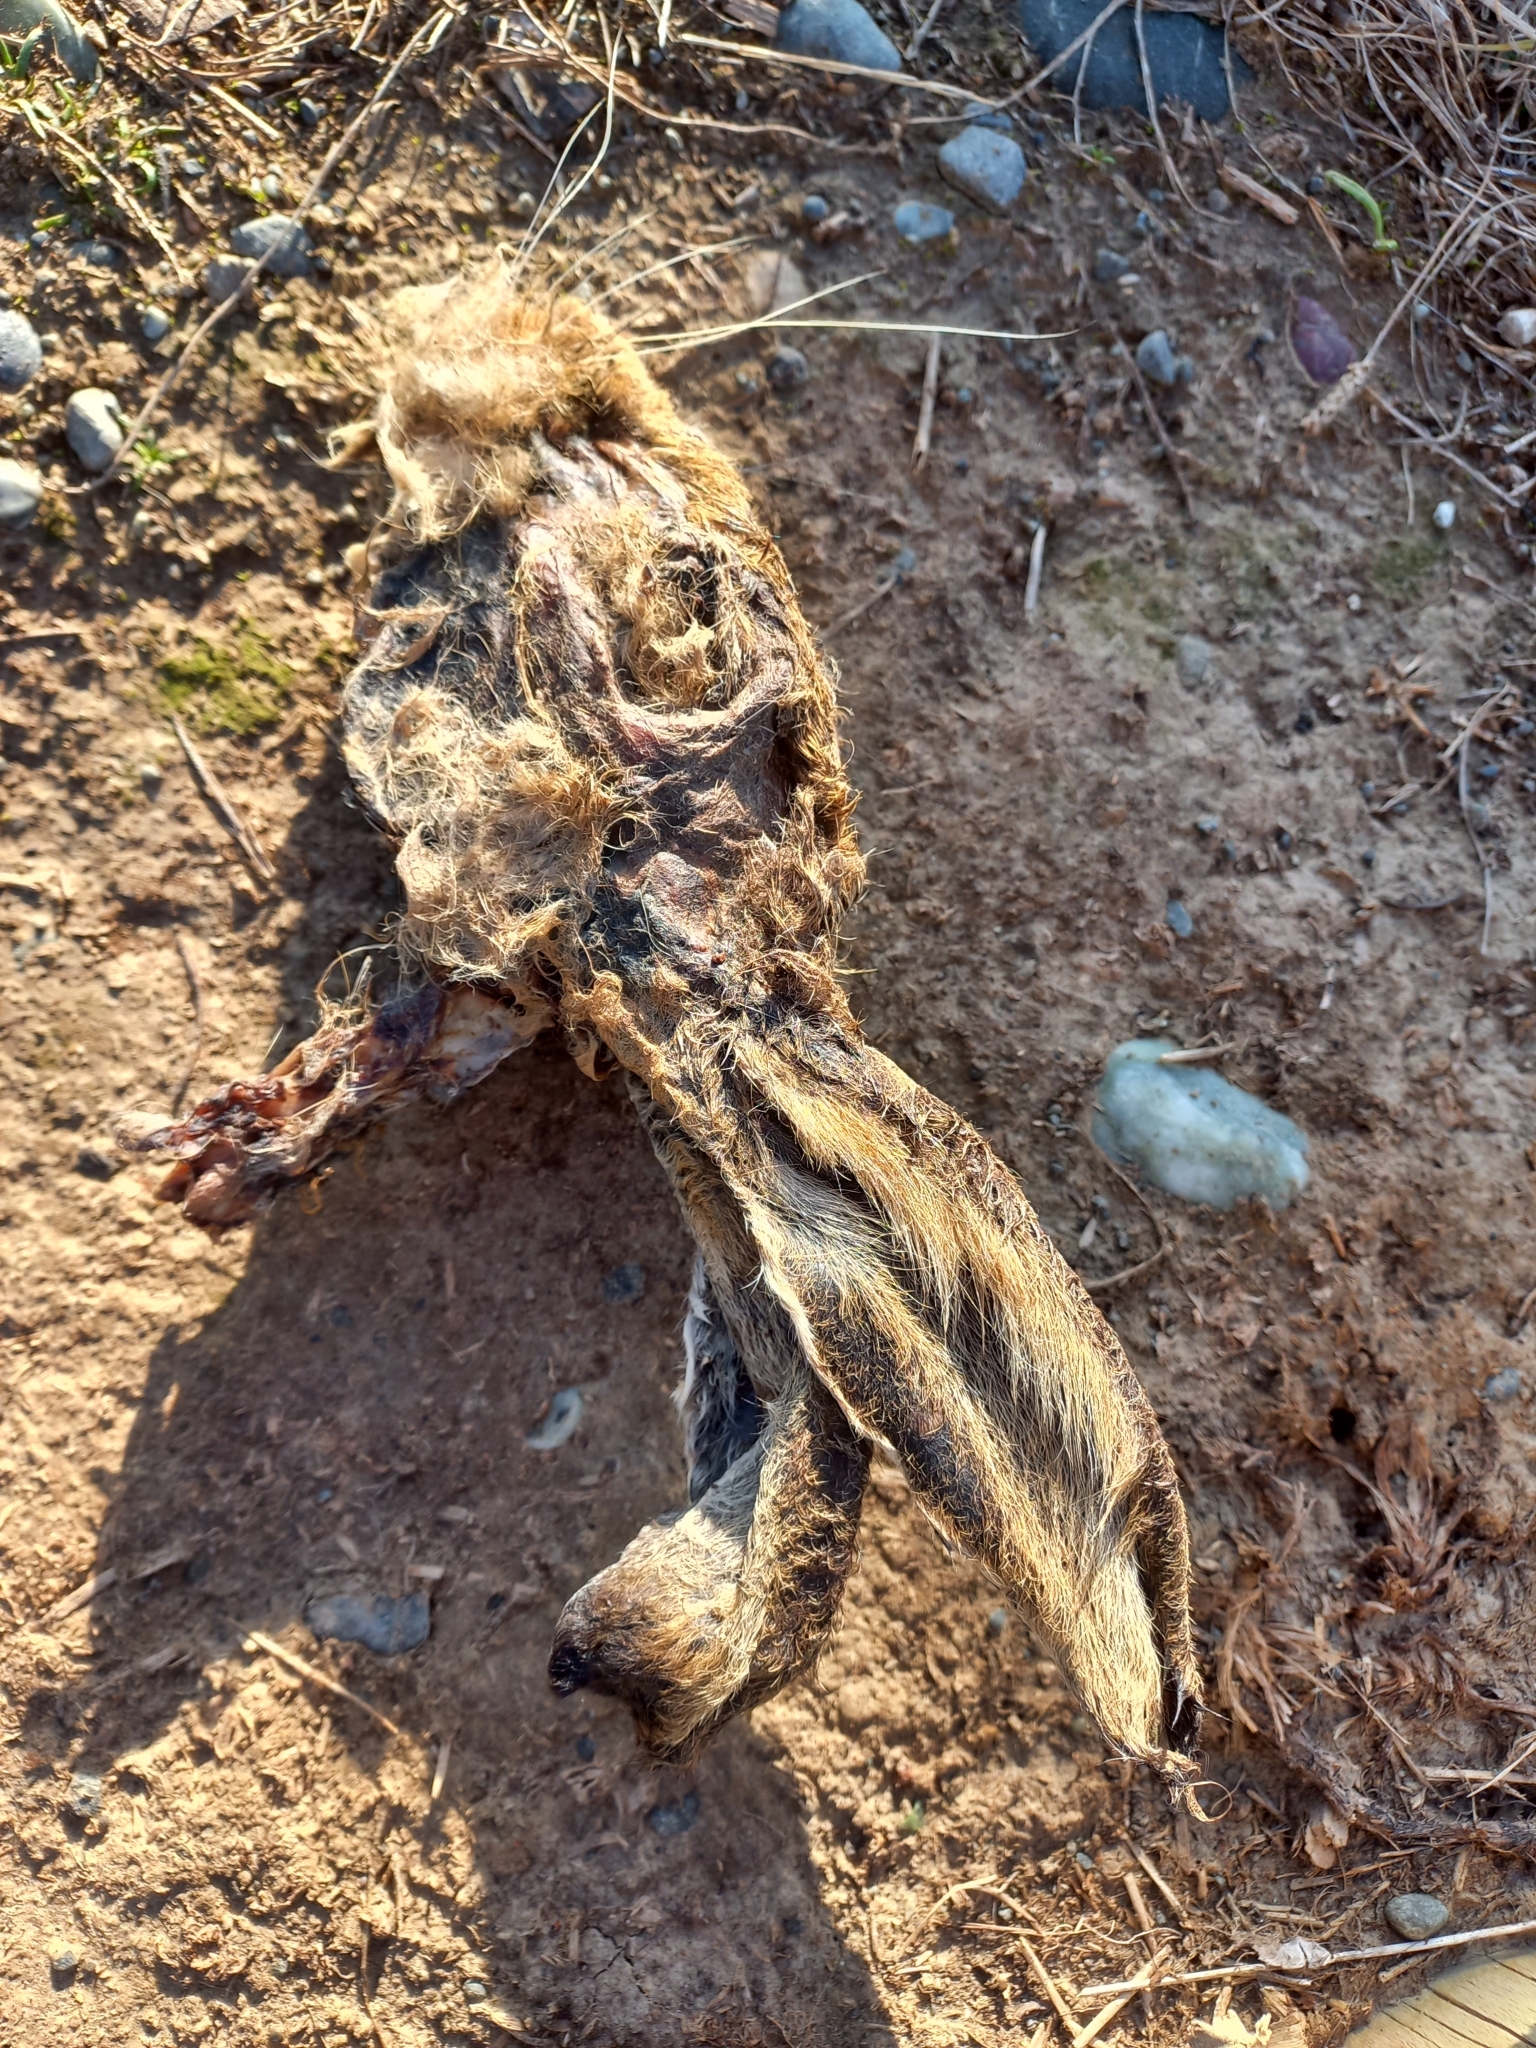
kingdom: Animalia
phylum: Chordata
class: Mammalia
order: Lagomorpha
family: Leporidae
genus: Lepus
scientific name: Lepus europaeus
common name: European hare
